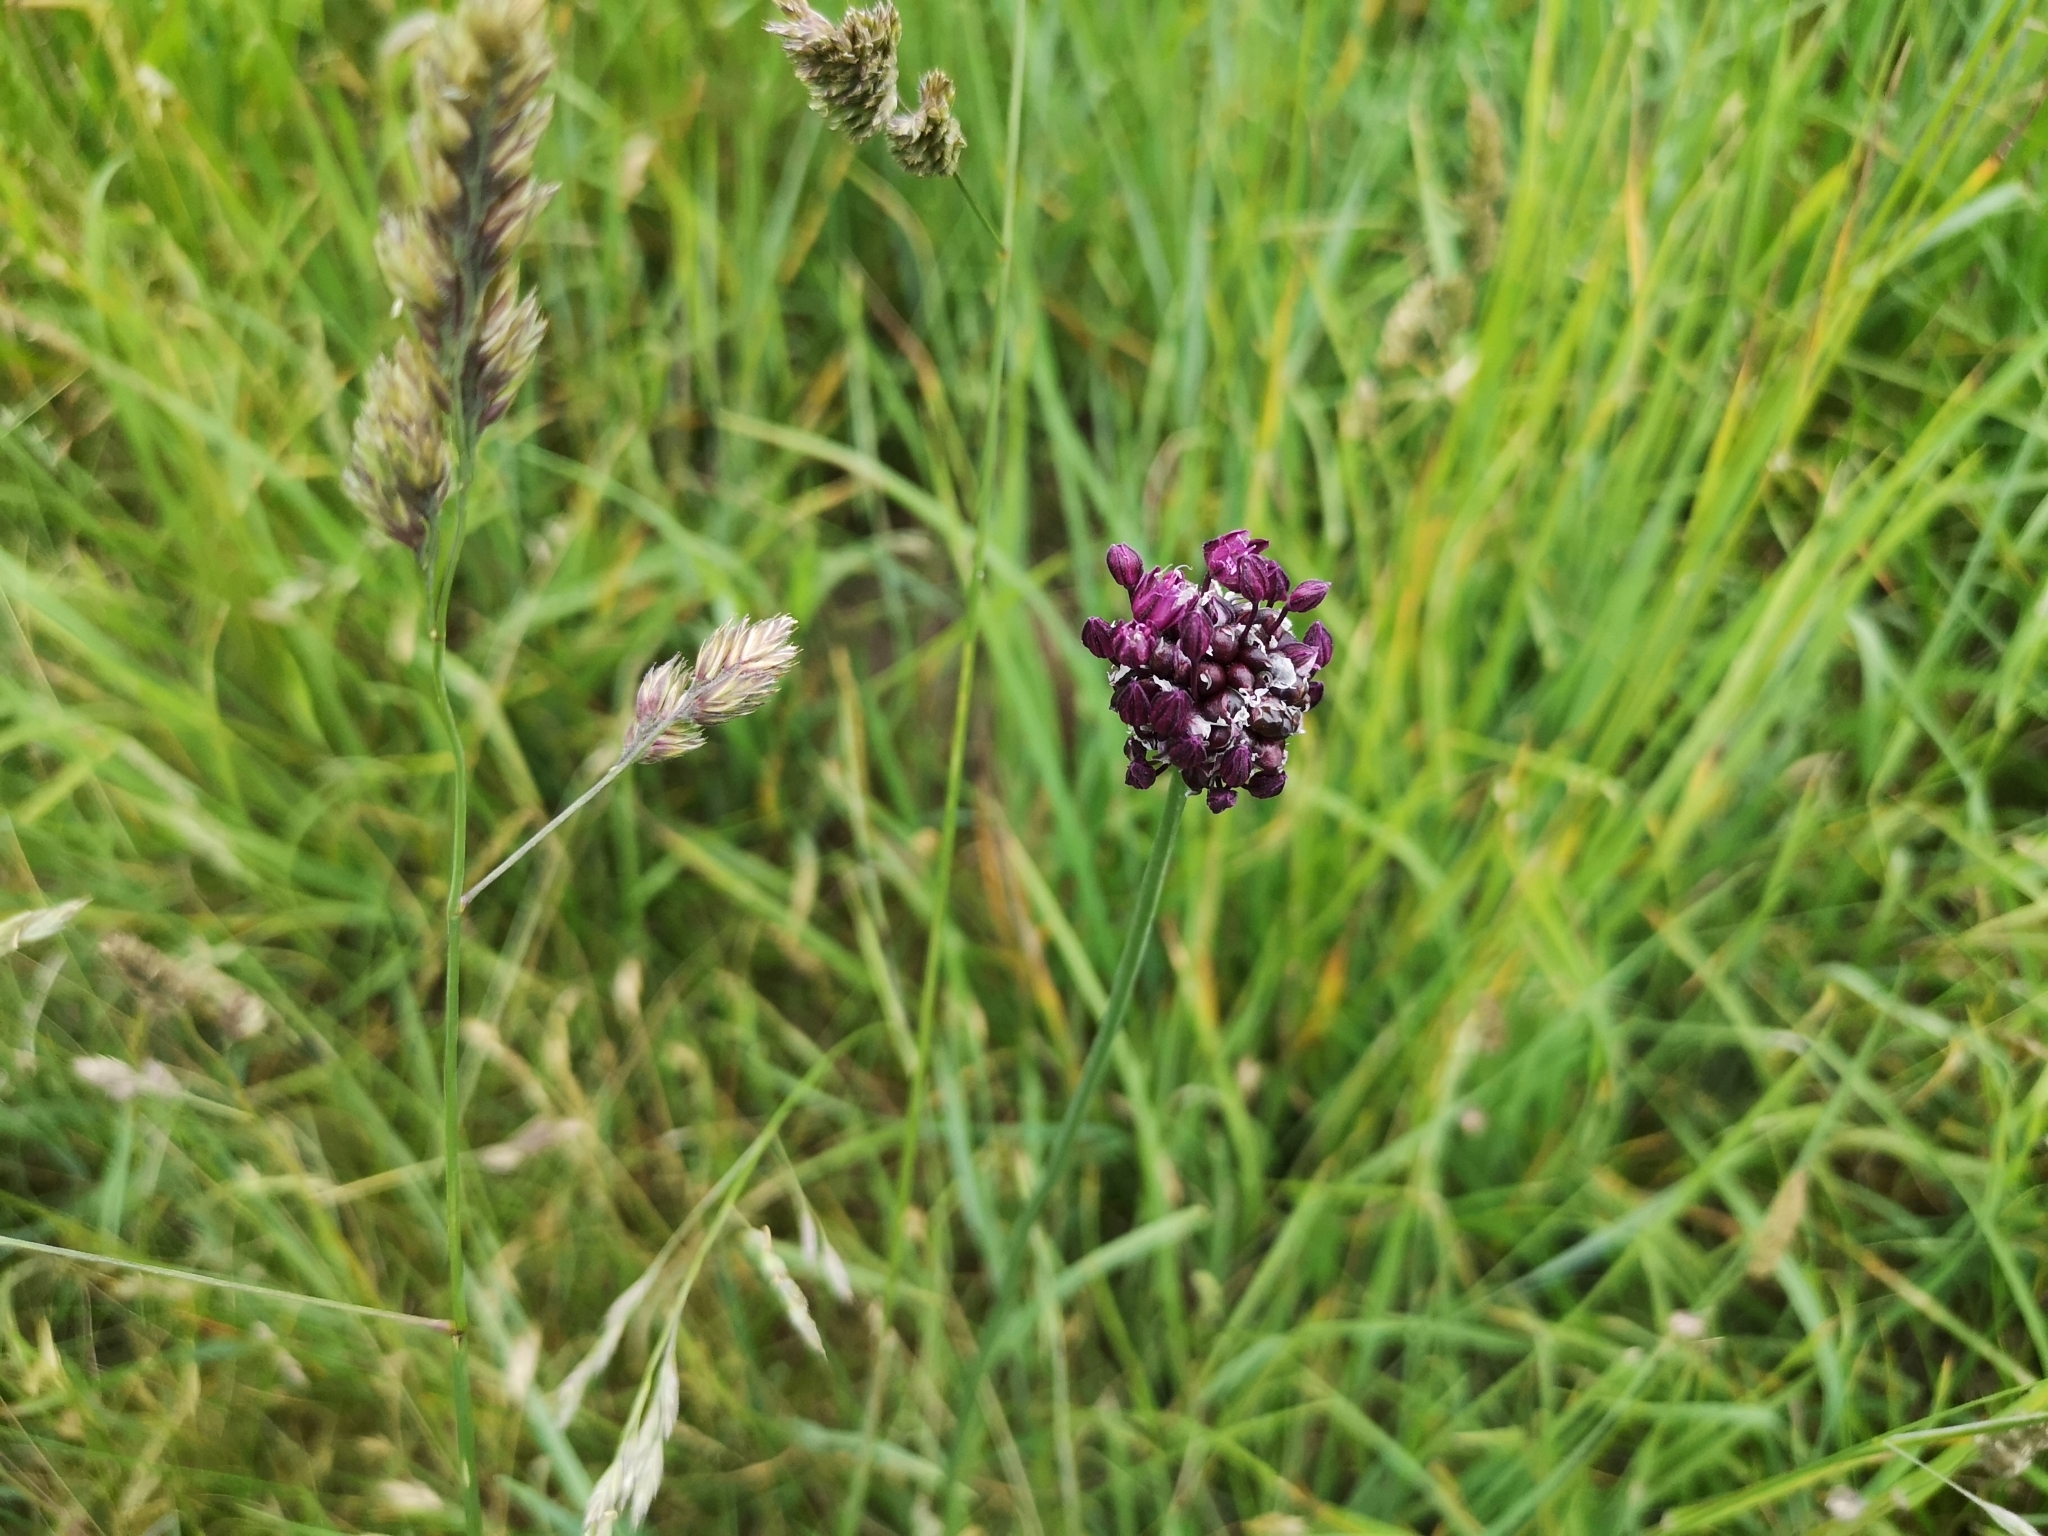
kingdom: Plantae
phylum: Tracheophyta
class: Liliopsida
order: Asparagales
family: Amaryllidaceae
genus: Allium
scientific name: Allium scorodoprasum
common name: Sand leek
